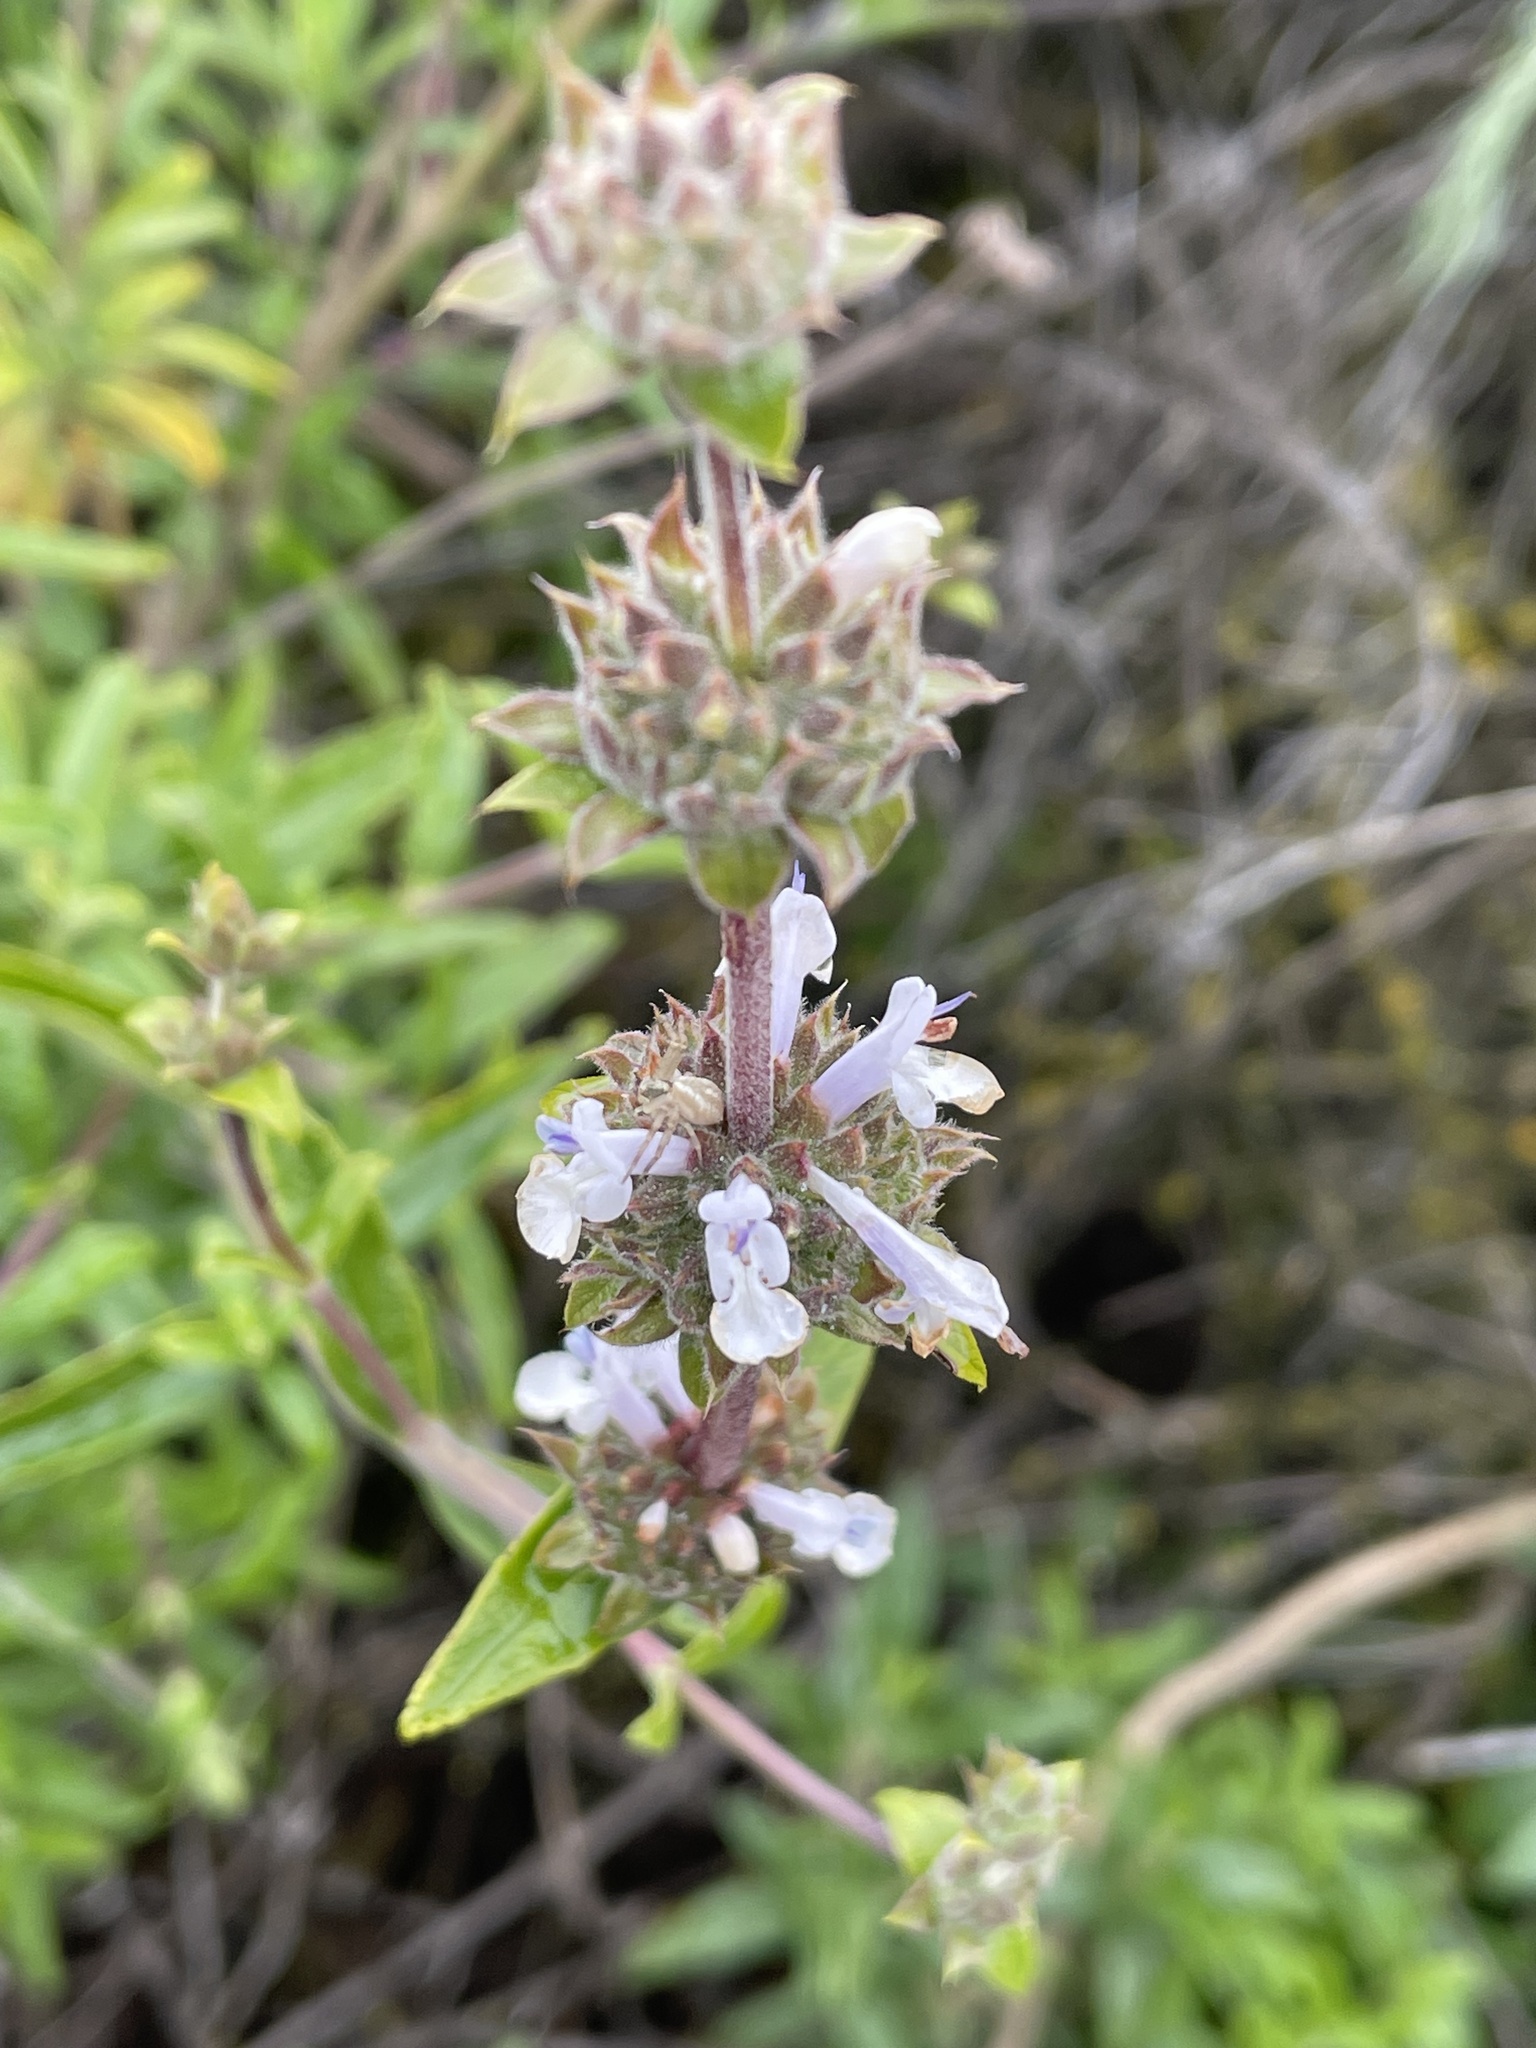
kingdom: Plantae
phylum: Tracheophyta
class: Magnoliopsida
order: Lamiales
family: Lamiaceae
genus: Salvia
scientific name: Salvia mellifera
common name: Black sage
